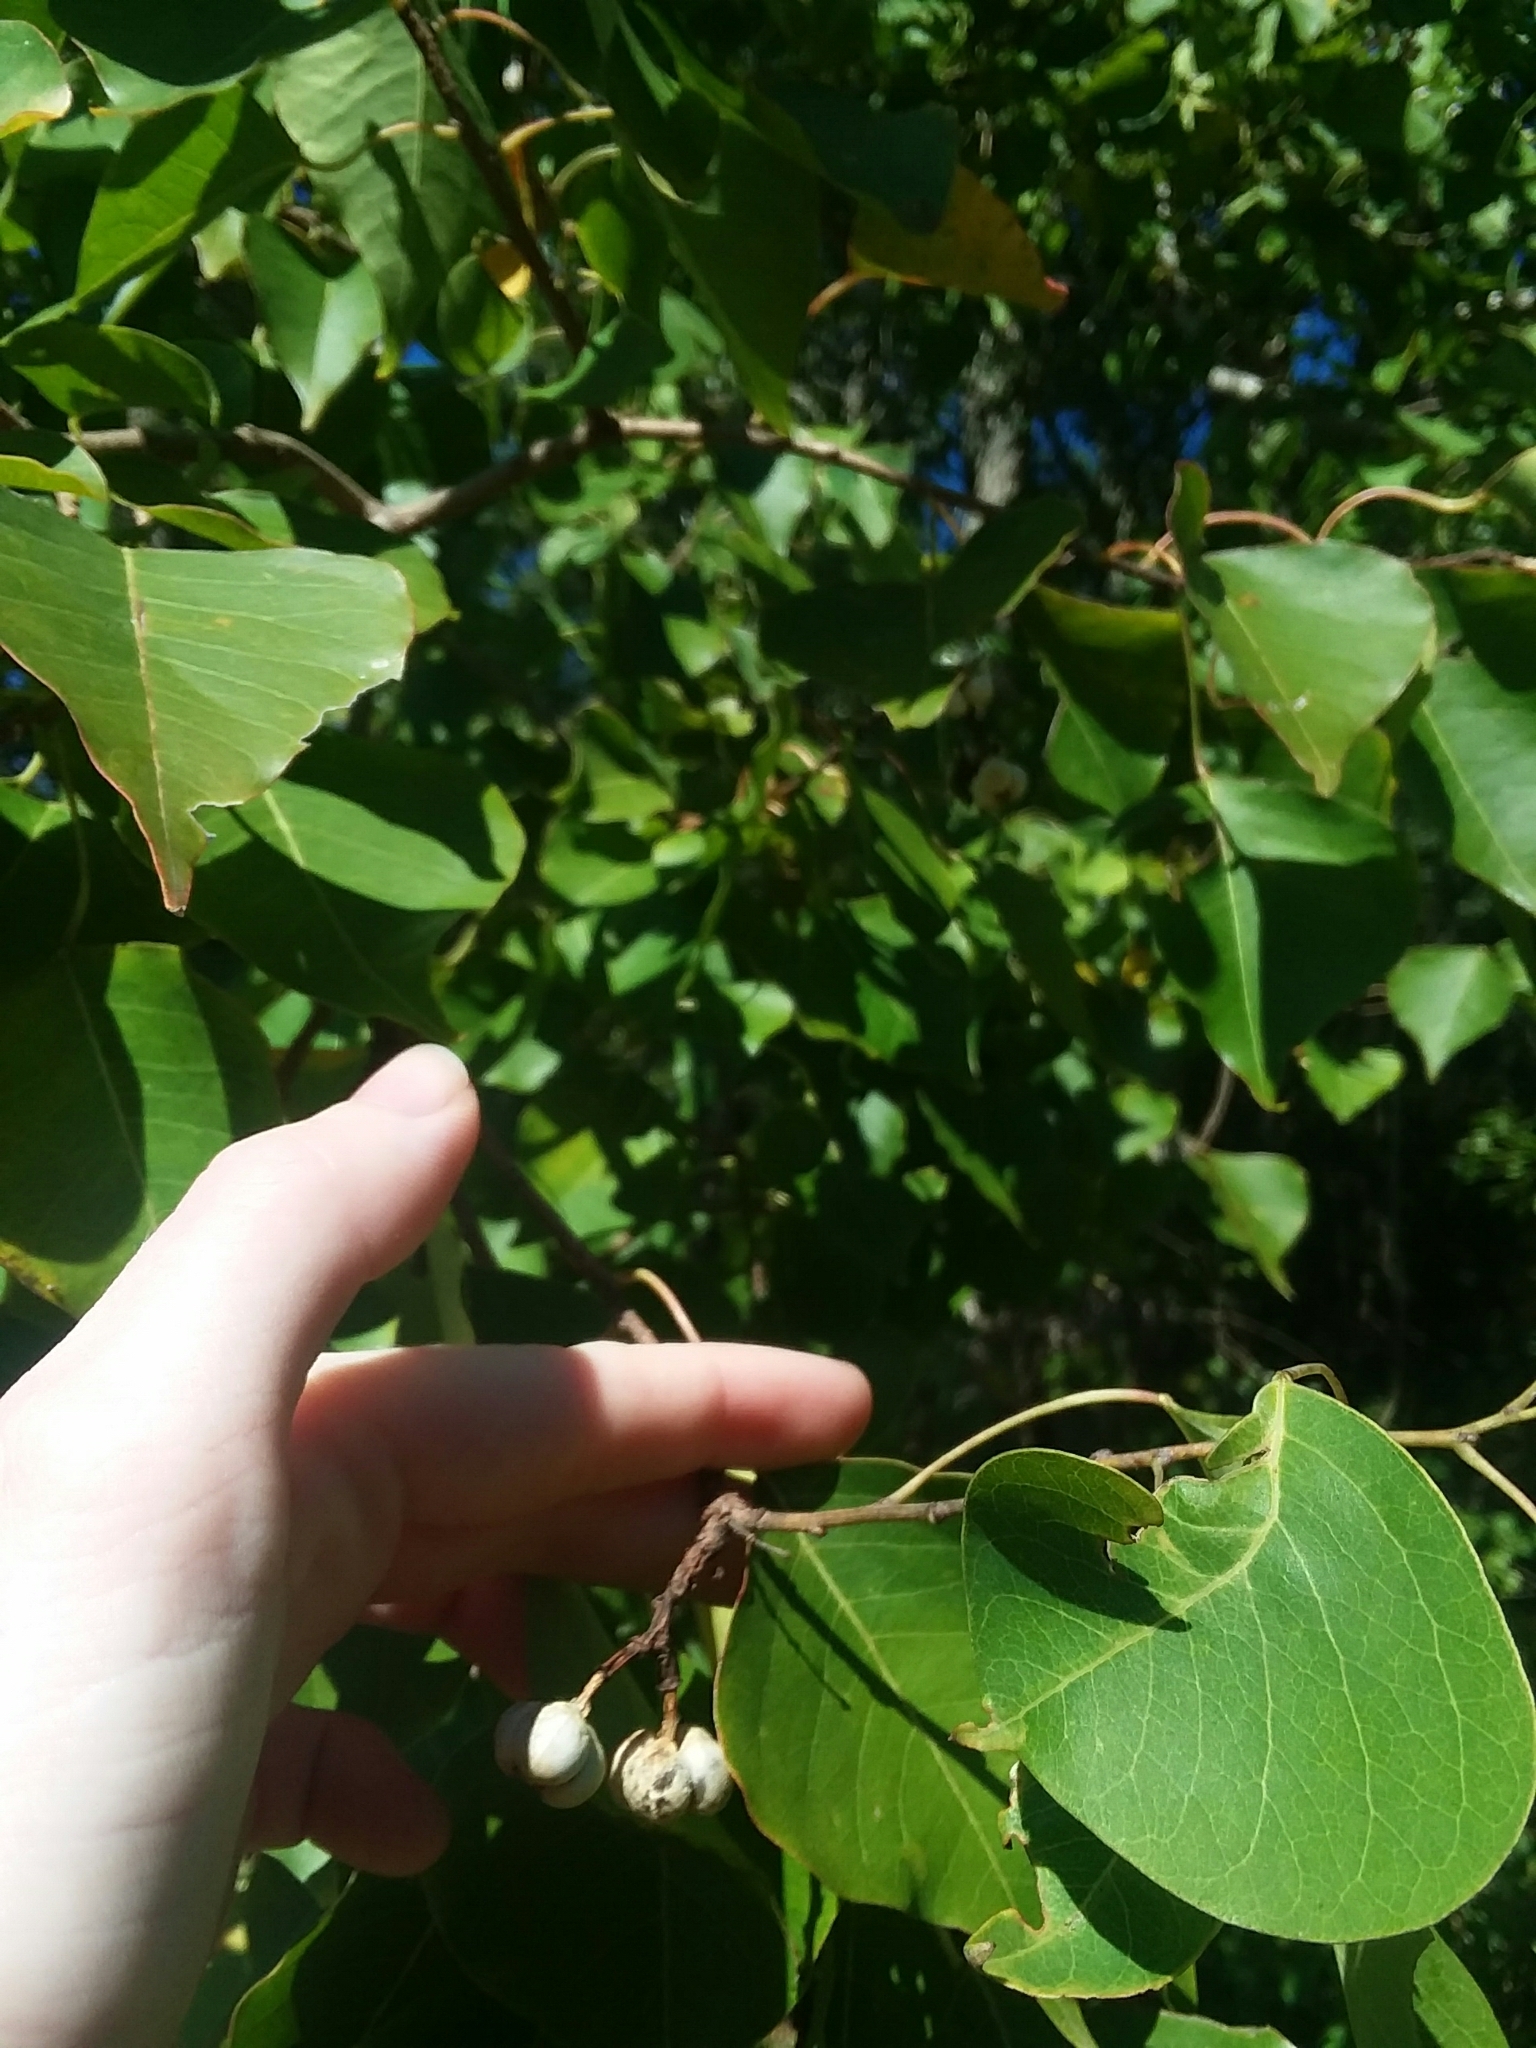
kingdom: Plantae
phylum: Tracheophyta
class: Magnoliopsida
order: Malpighiales
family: Euphorbiaceae
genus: Triadica
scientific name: Triadica sebifera
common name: Chinese tallow
